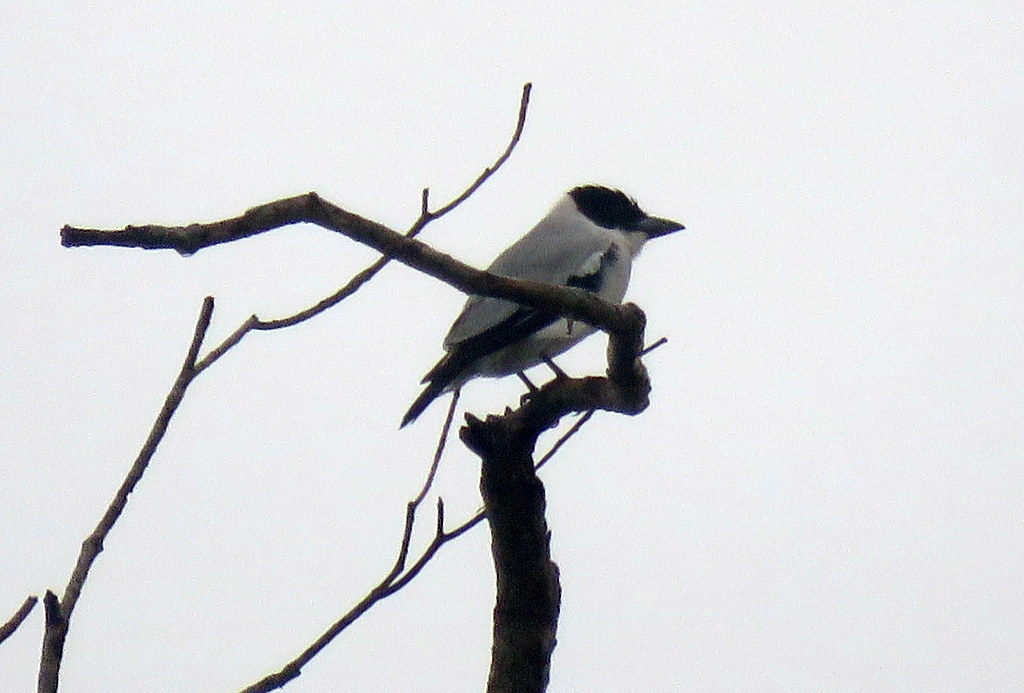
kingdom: Animalia
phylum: Chordata
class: Aves
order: Passeriformes
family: Cotingidae
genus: Tityra
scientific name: Tityra inquisitor
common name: Black-crowned tityra
